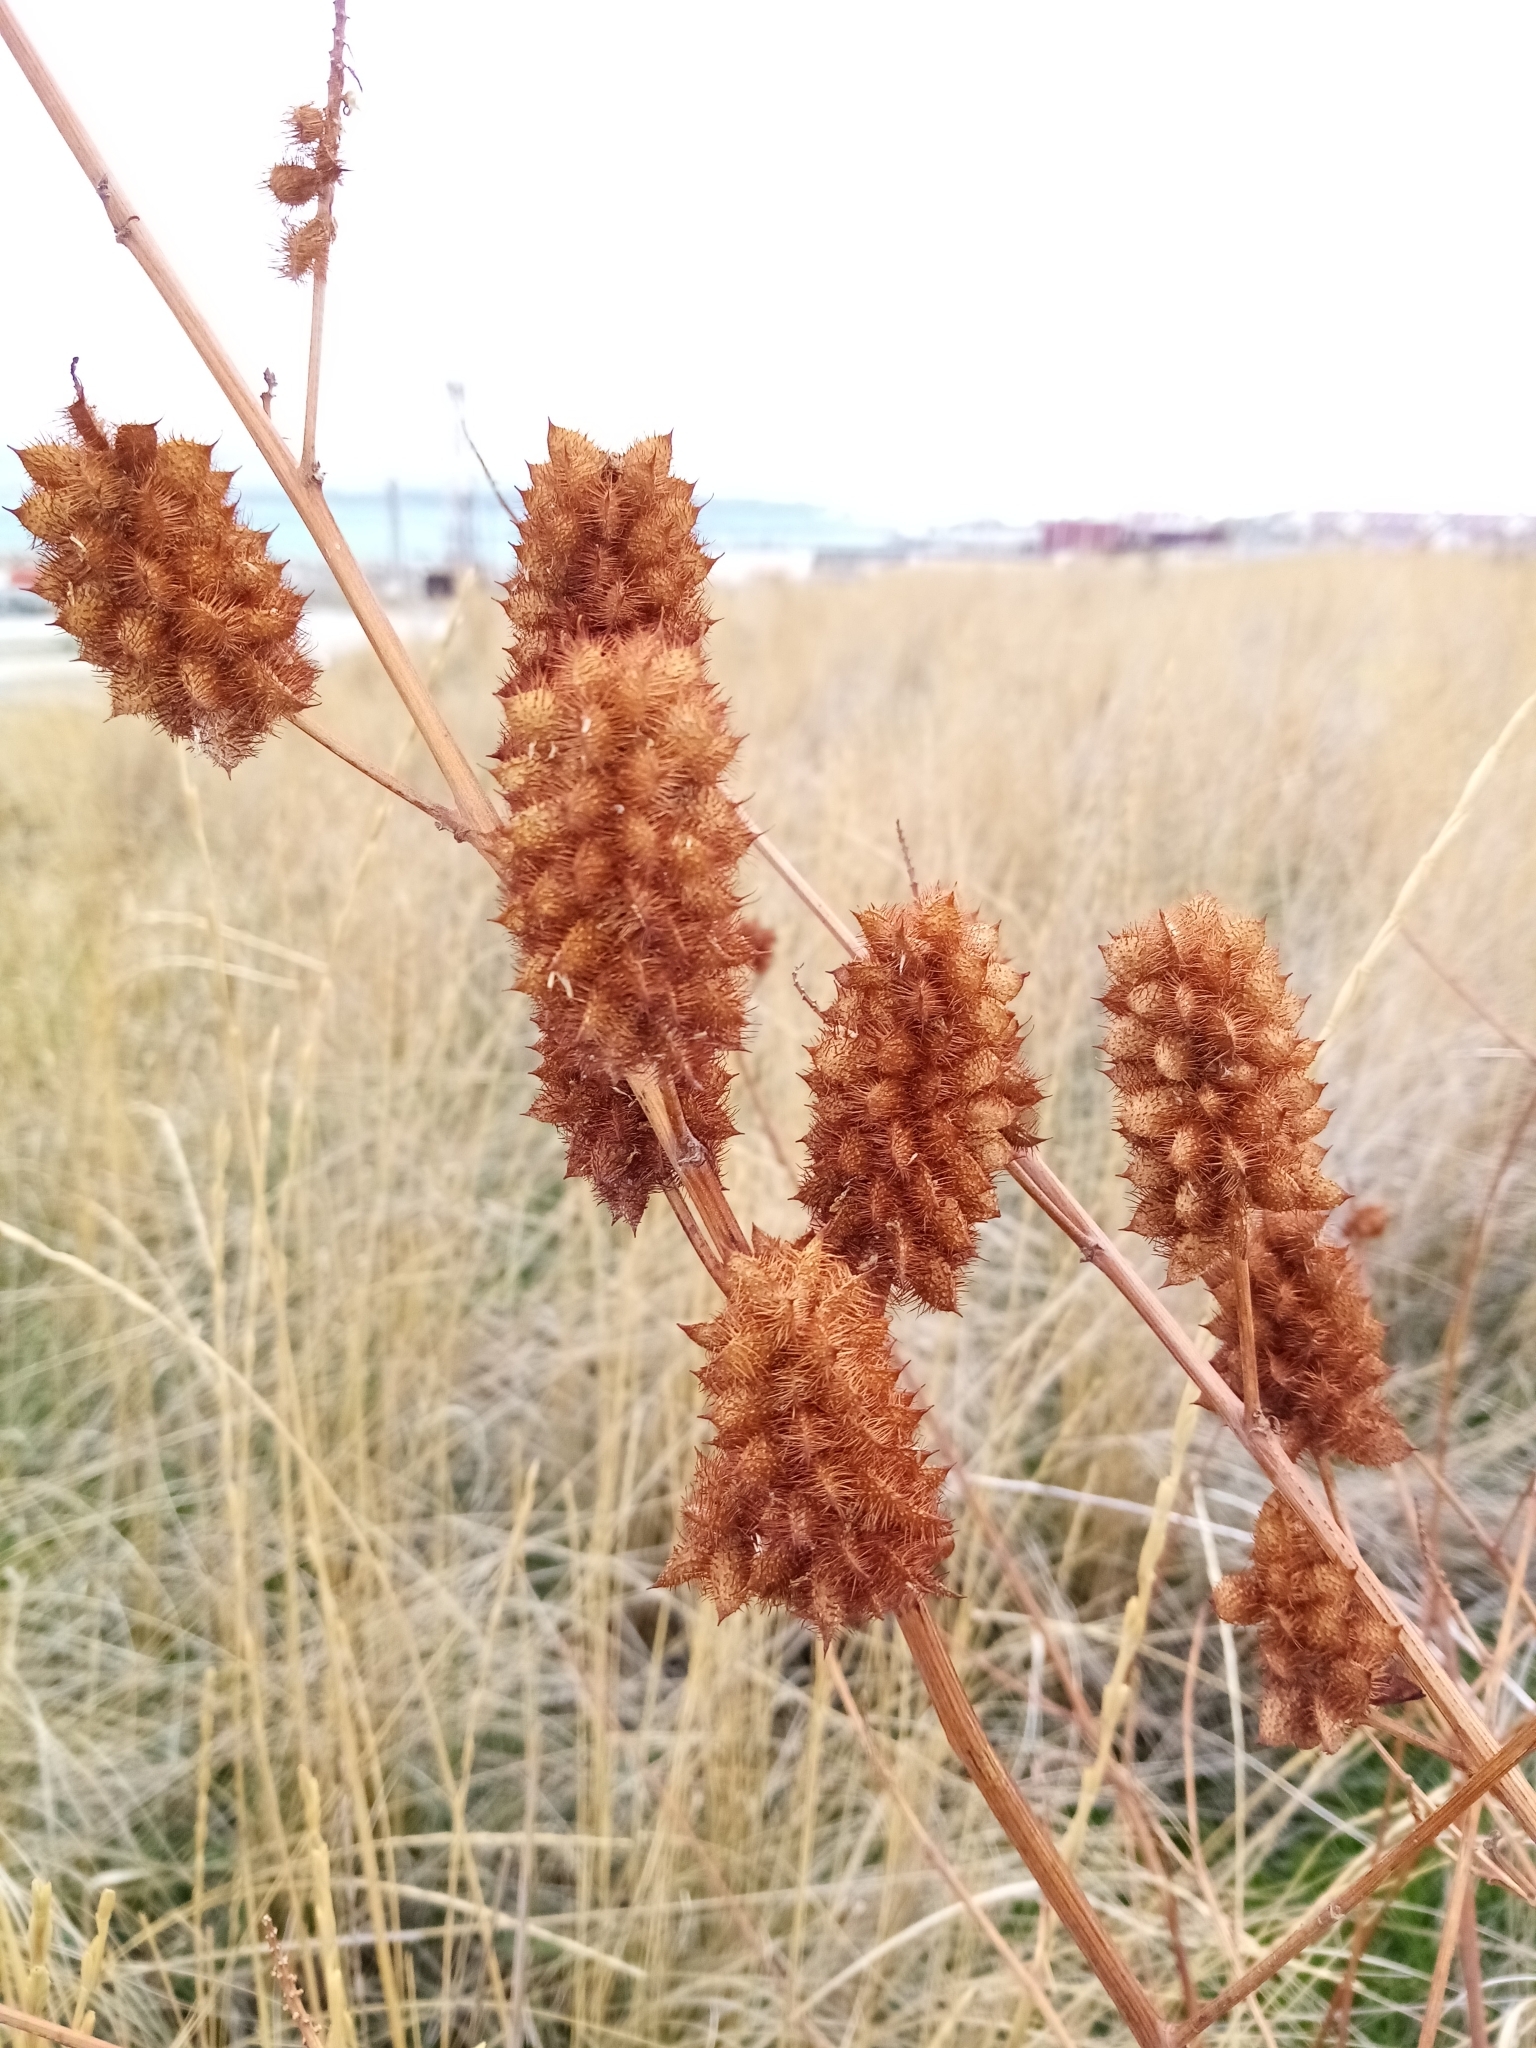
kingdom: Plantae
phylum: Tracheophyta
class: Magnoliopsida
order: Fabales
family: Fabaceae
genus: Glycyrrhiza
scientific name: Glycyrrhiza echinata
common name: German liquorice
